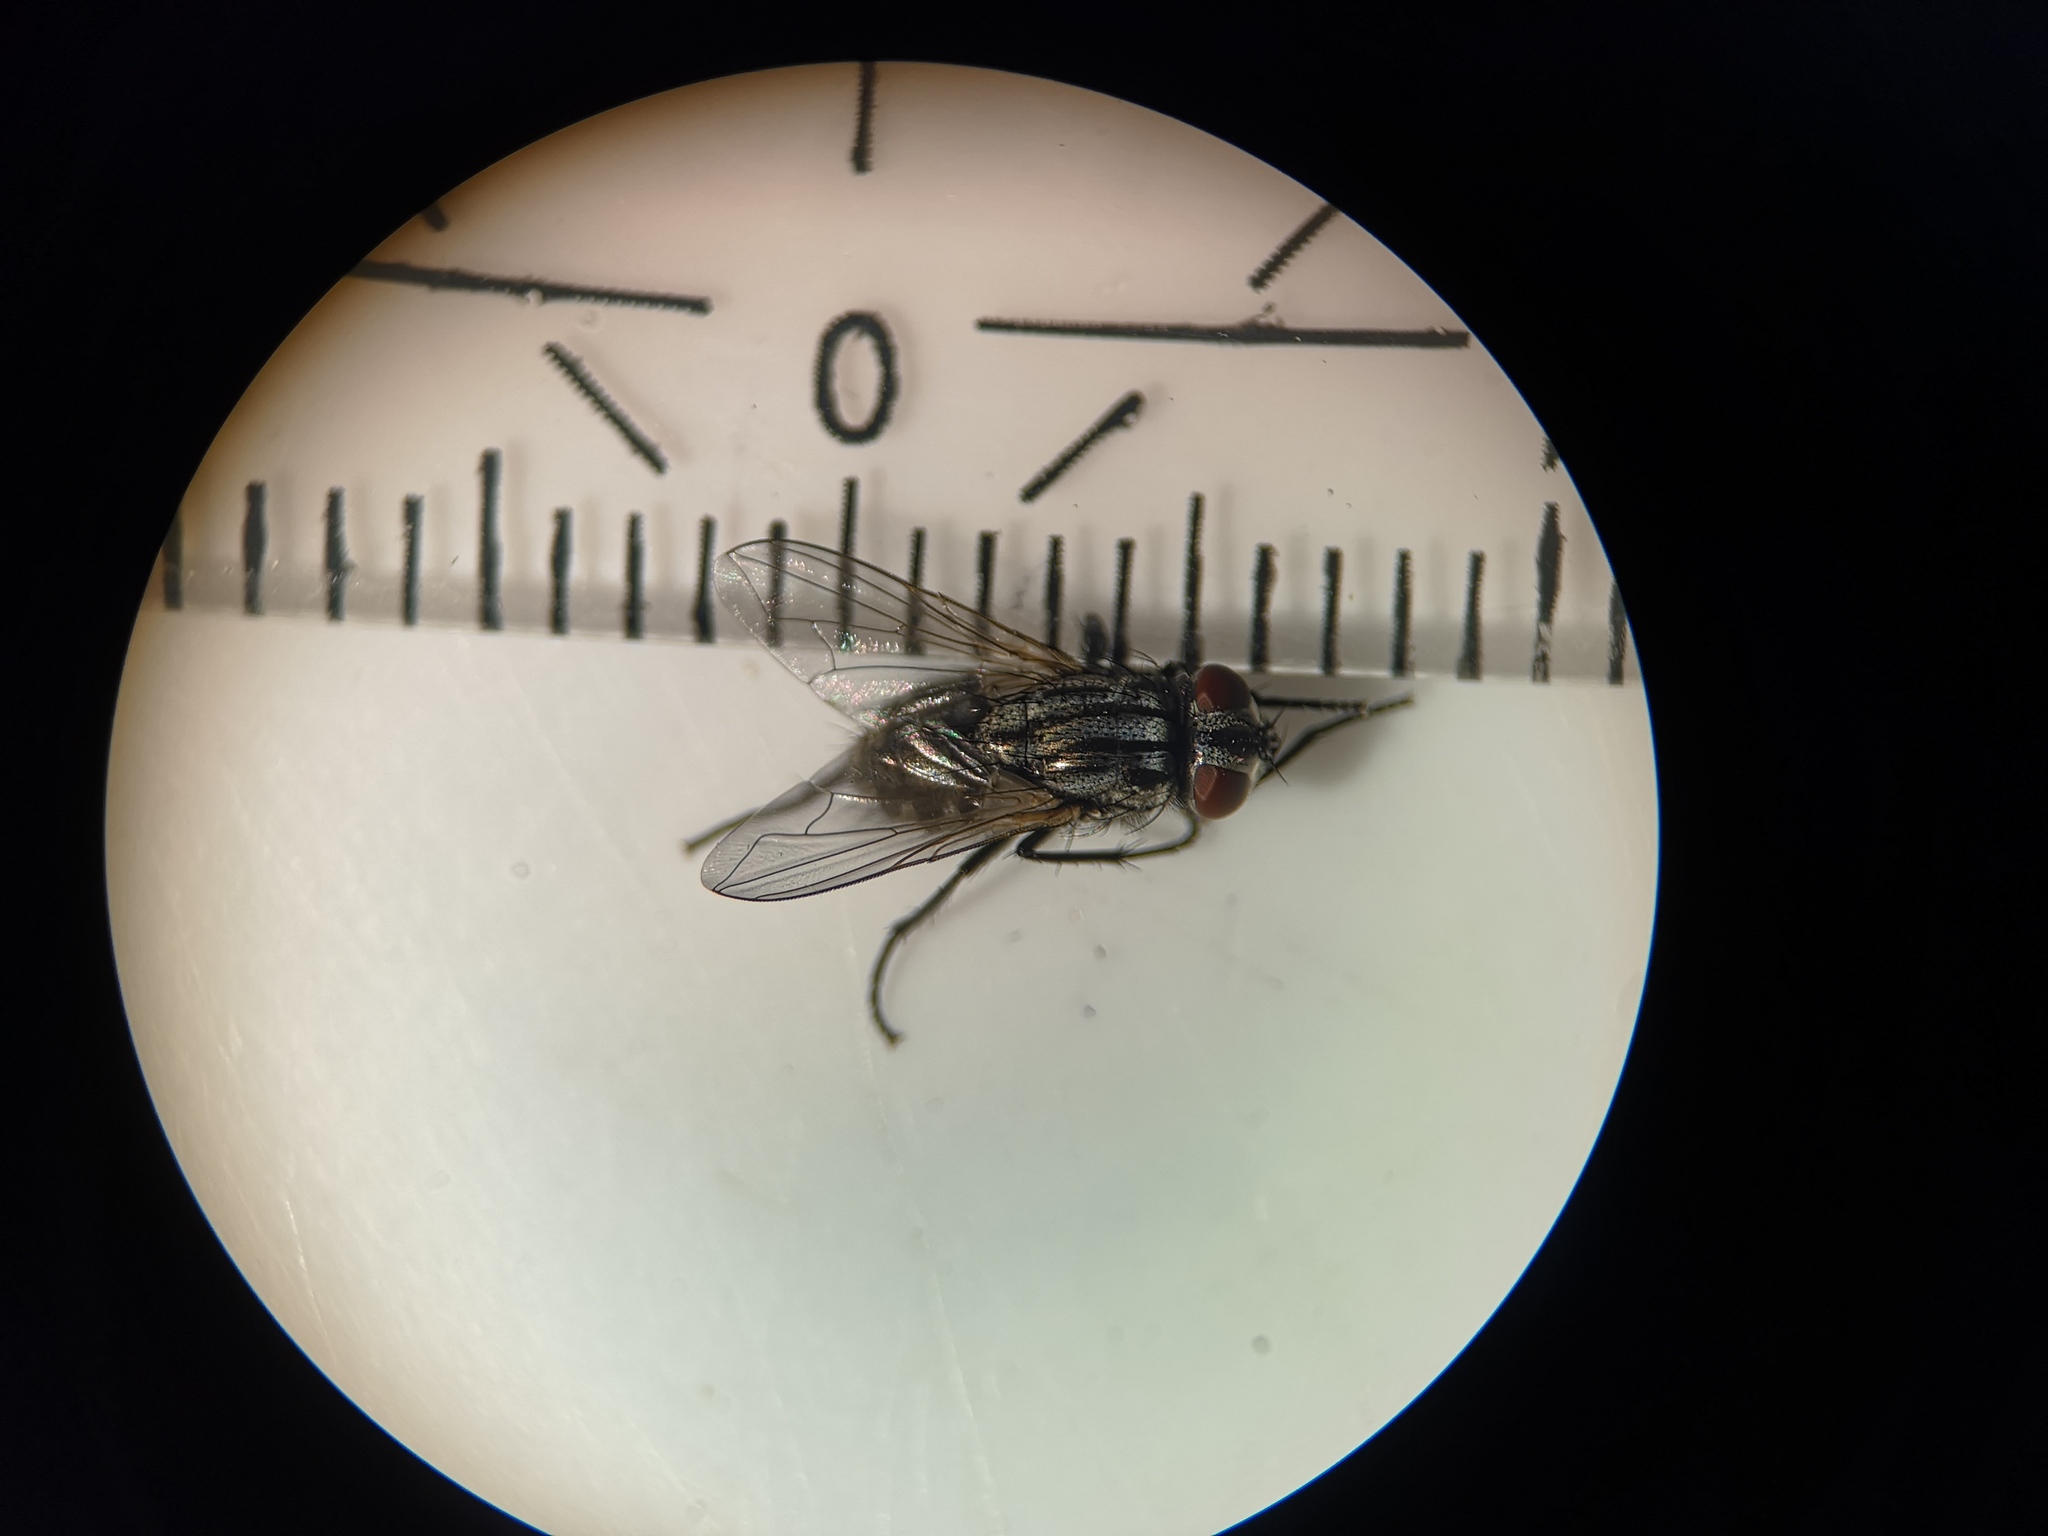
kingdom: Animalia
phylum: Arthropoda
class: Insecta
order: Diptera
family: Muscidae
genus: Musca
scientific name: Musca autumnalis
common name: Face fly
